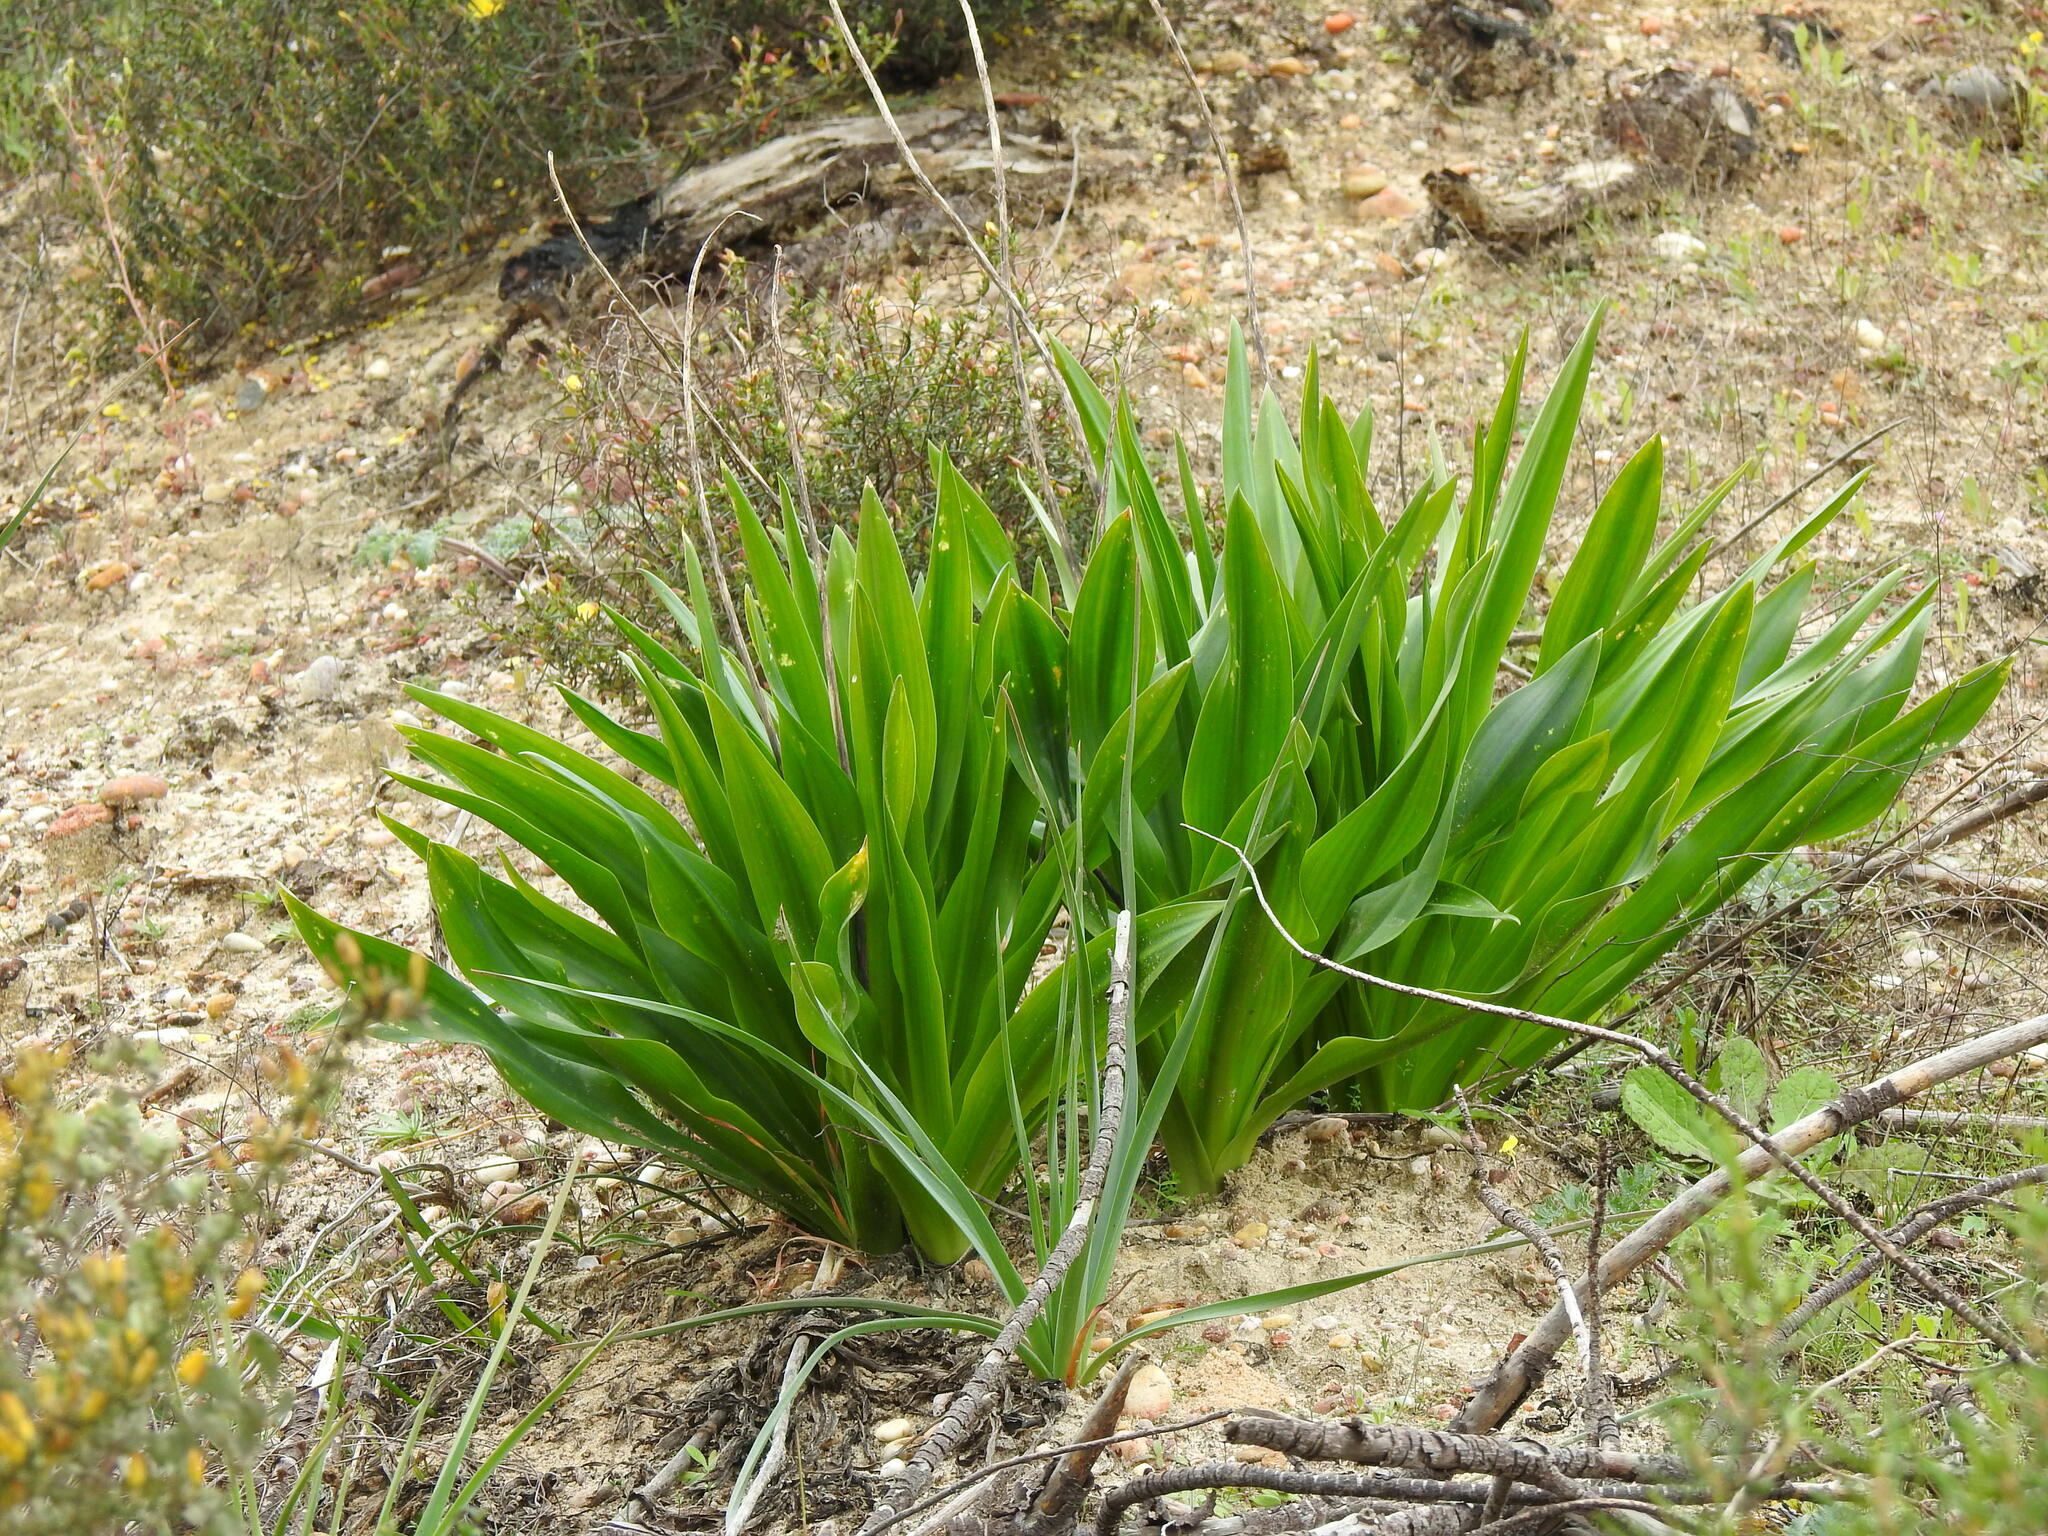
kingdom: Plantae
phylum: Tracheophyta
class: Liliopsida
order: Asparagales
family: Asparagaceae
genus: Drimia
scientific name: Drimia maritima
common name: Maritime squill
